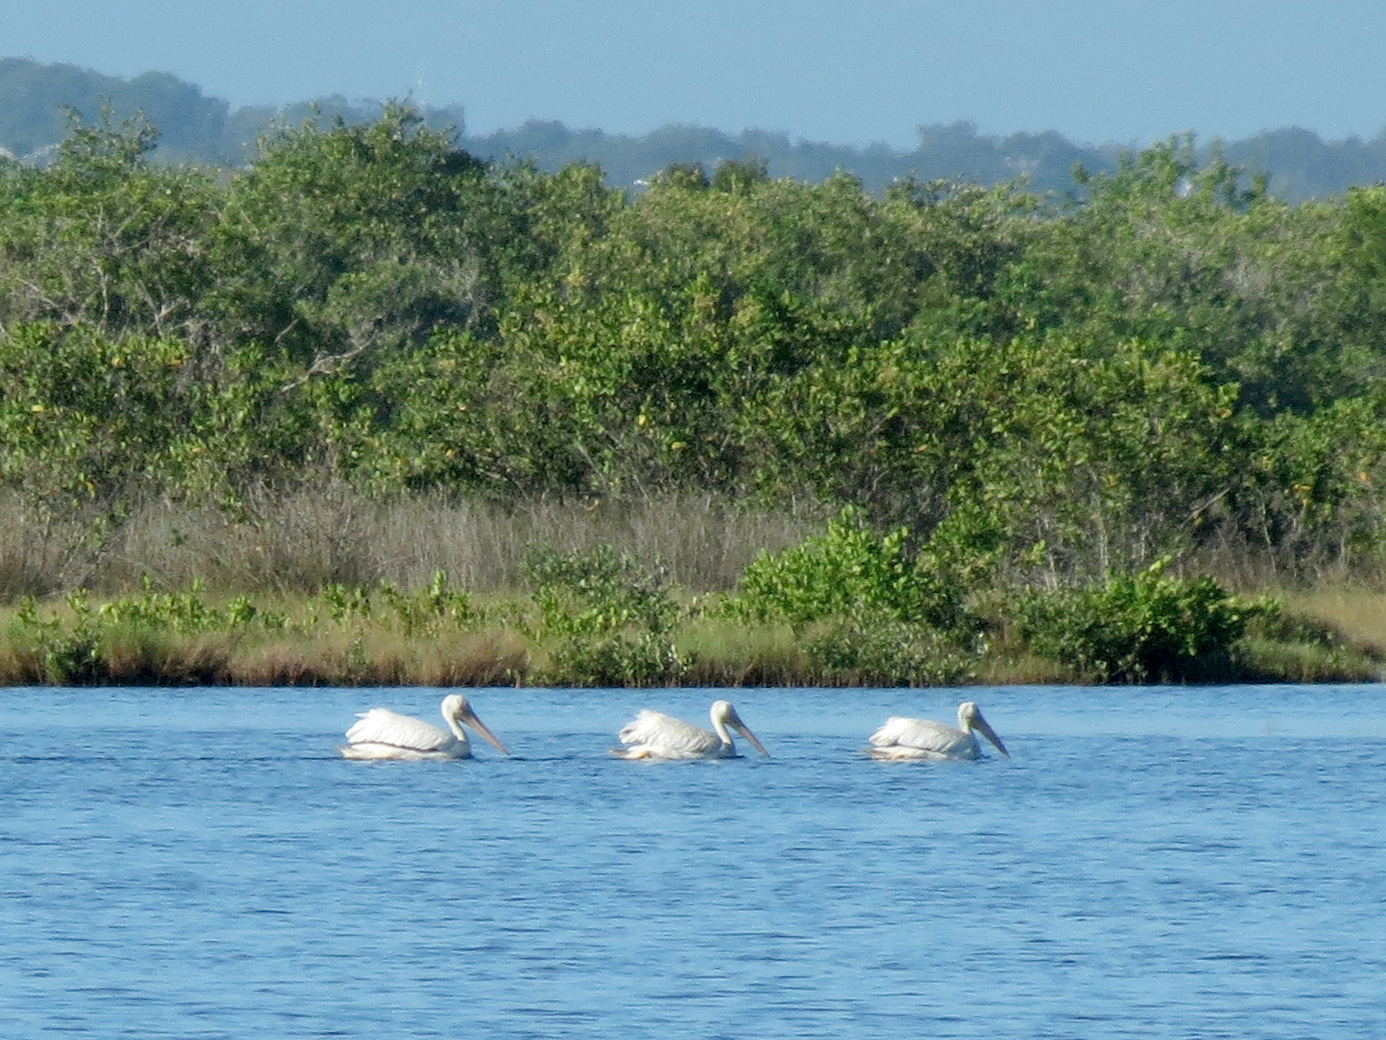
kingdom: Animalia
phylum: Chordata
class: Aves
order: Pelecaniformes
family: Pelecanidae
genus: Pelecanus
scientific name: Pelecanus erythrorhynchos
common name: American white pelican
